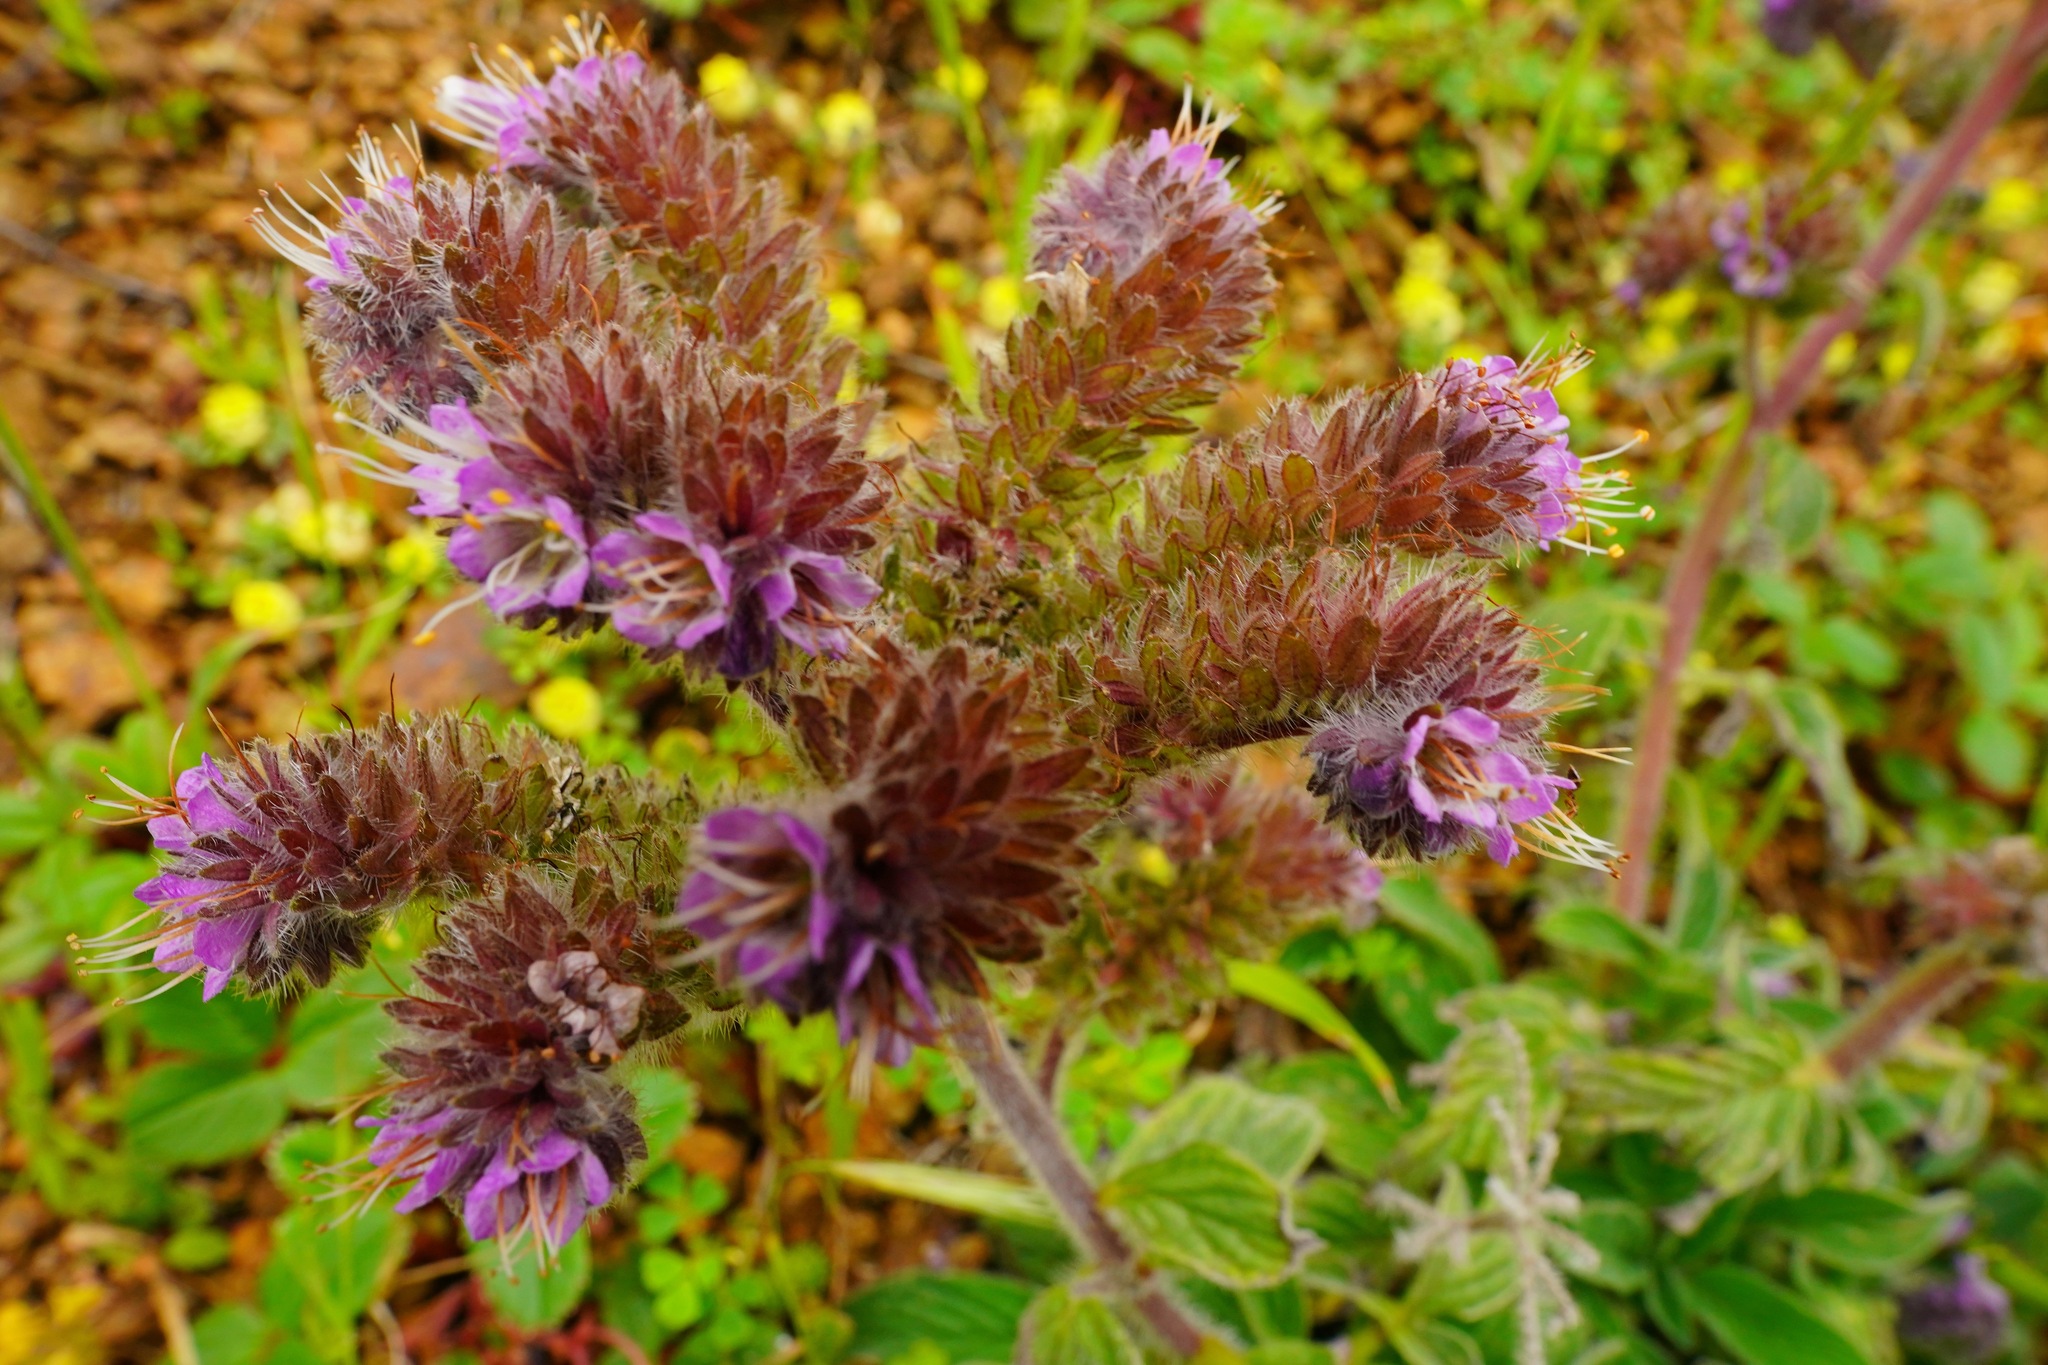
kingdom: Plantae
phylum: Tracheophyta
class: Magnoliopsida
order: Boraginales
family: Hydrophyllaceae
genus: Phacelia
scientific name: Phacelia californica
